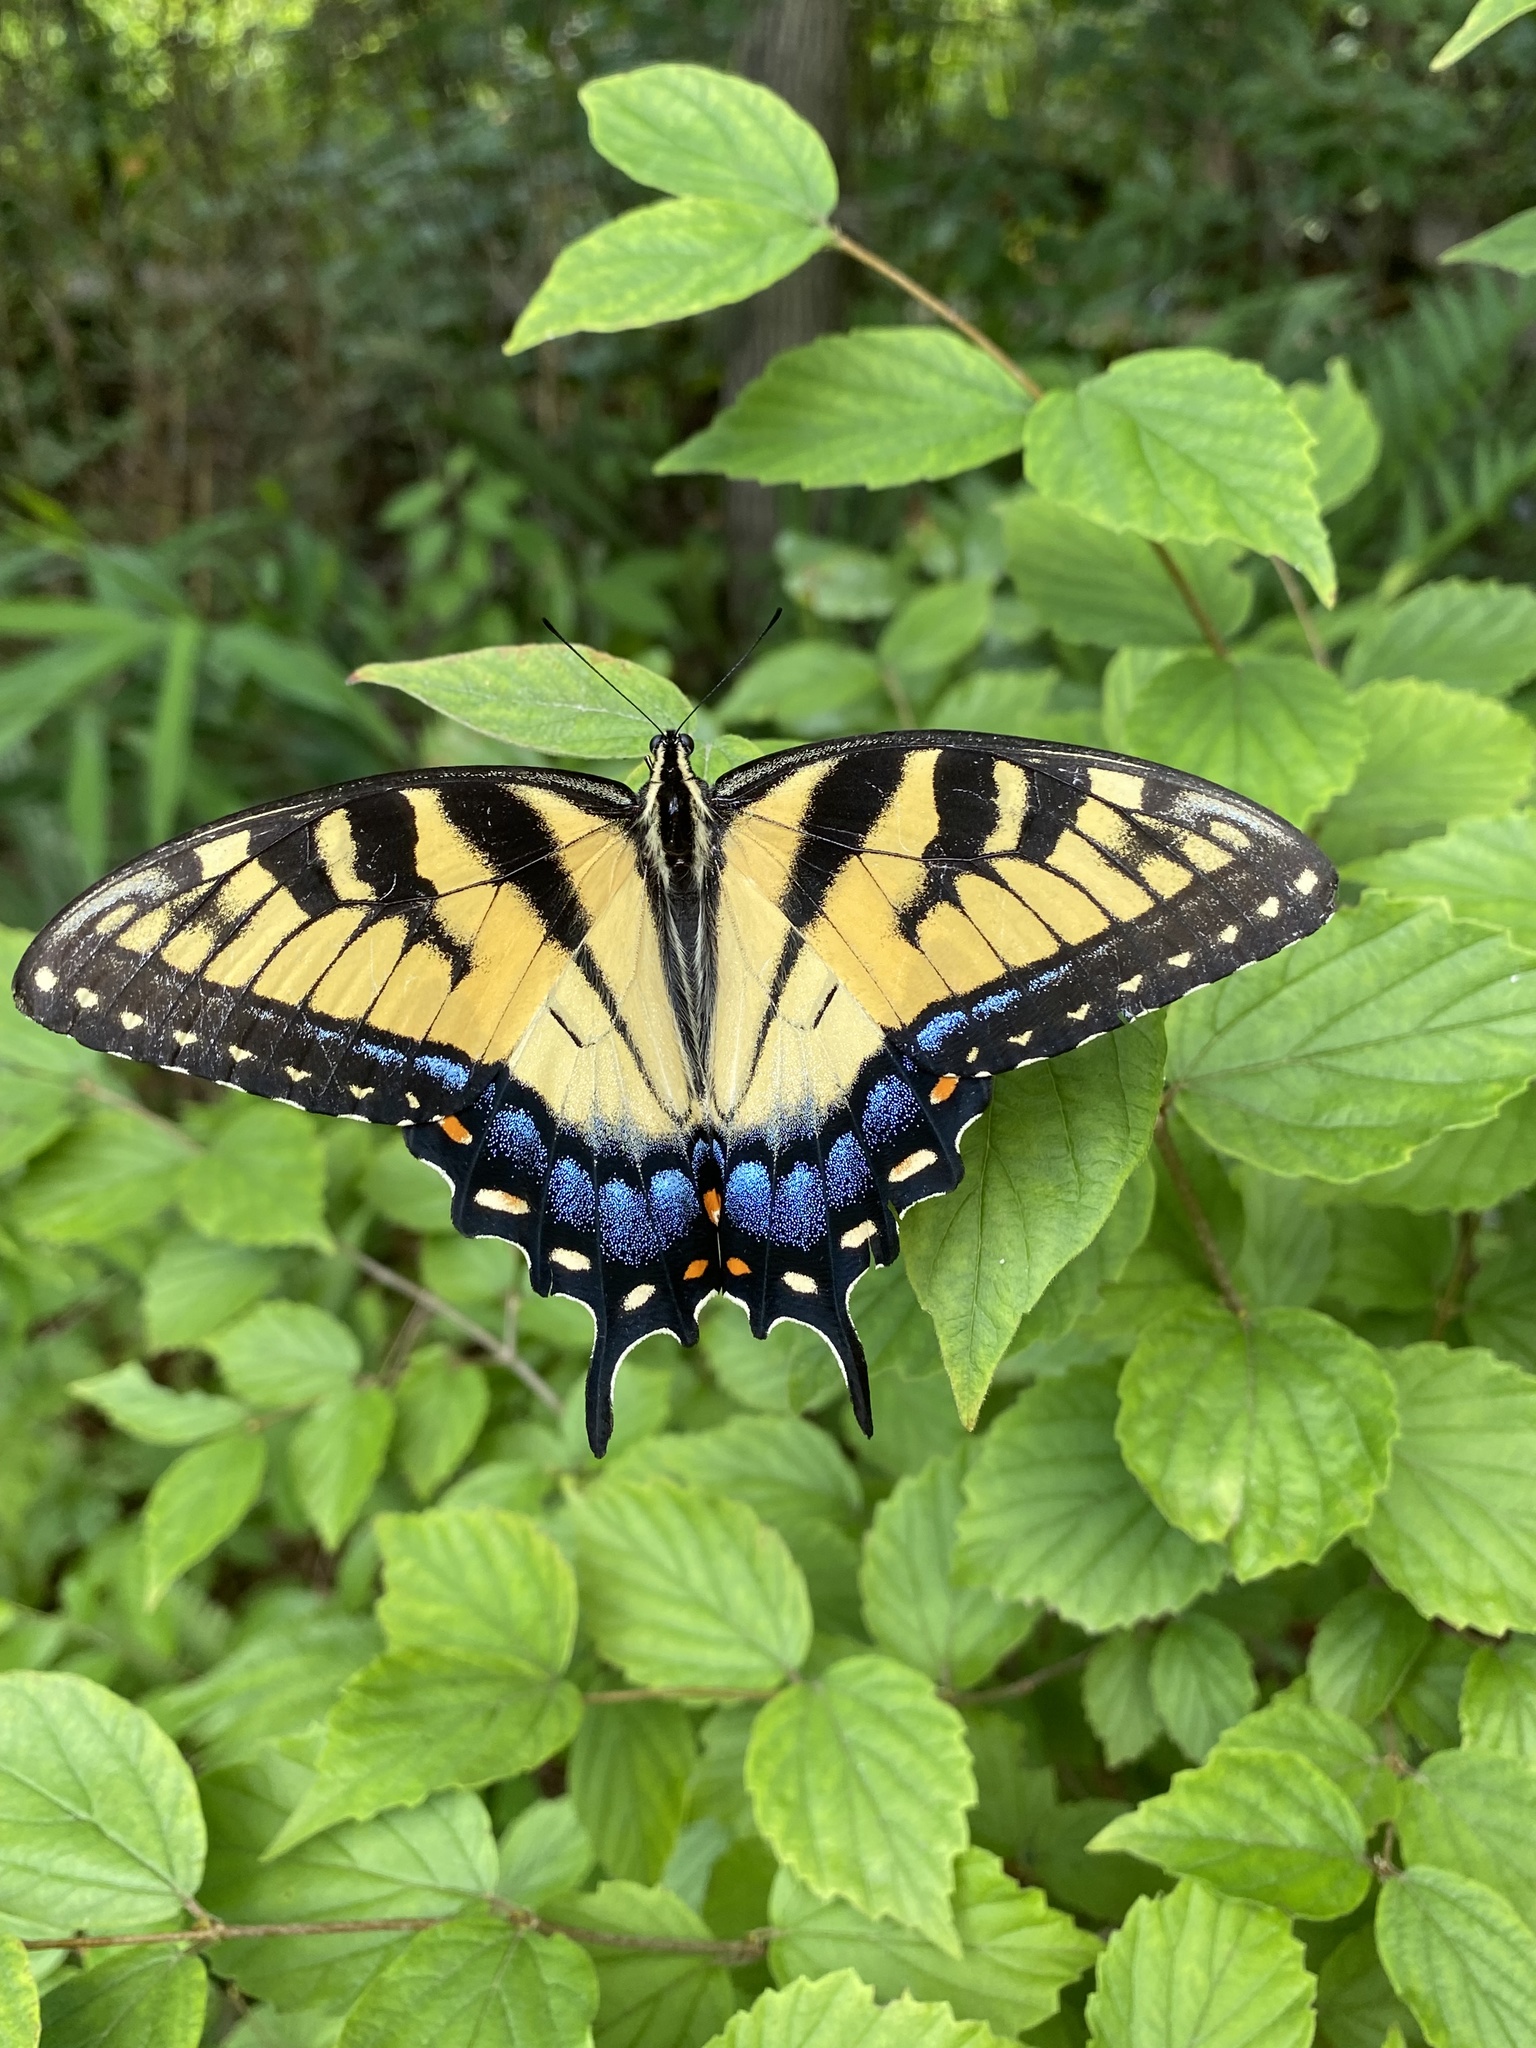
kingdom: Animalia
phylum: Arthropoda
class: Insecta
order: Lepidoptera
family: Papilionidae
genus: Papilio
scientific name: Papilio glaucus
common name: Tiger swallowtail
